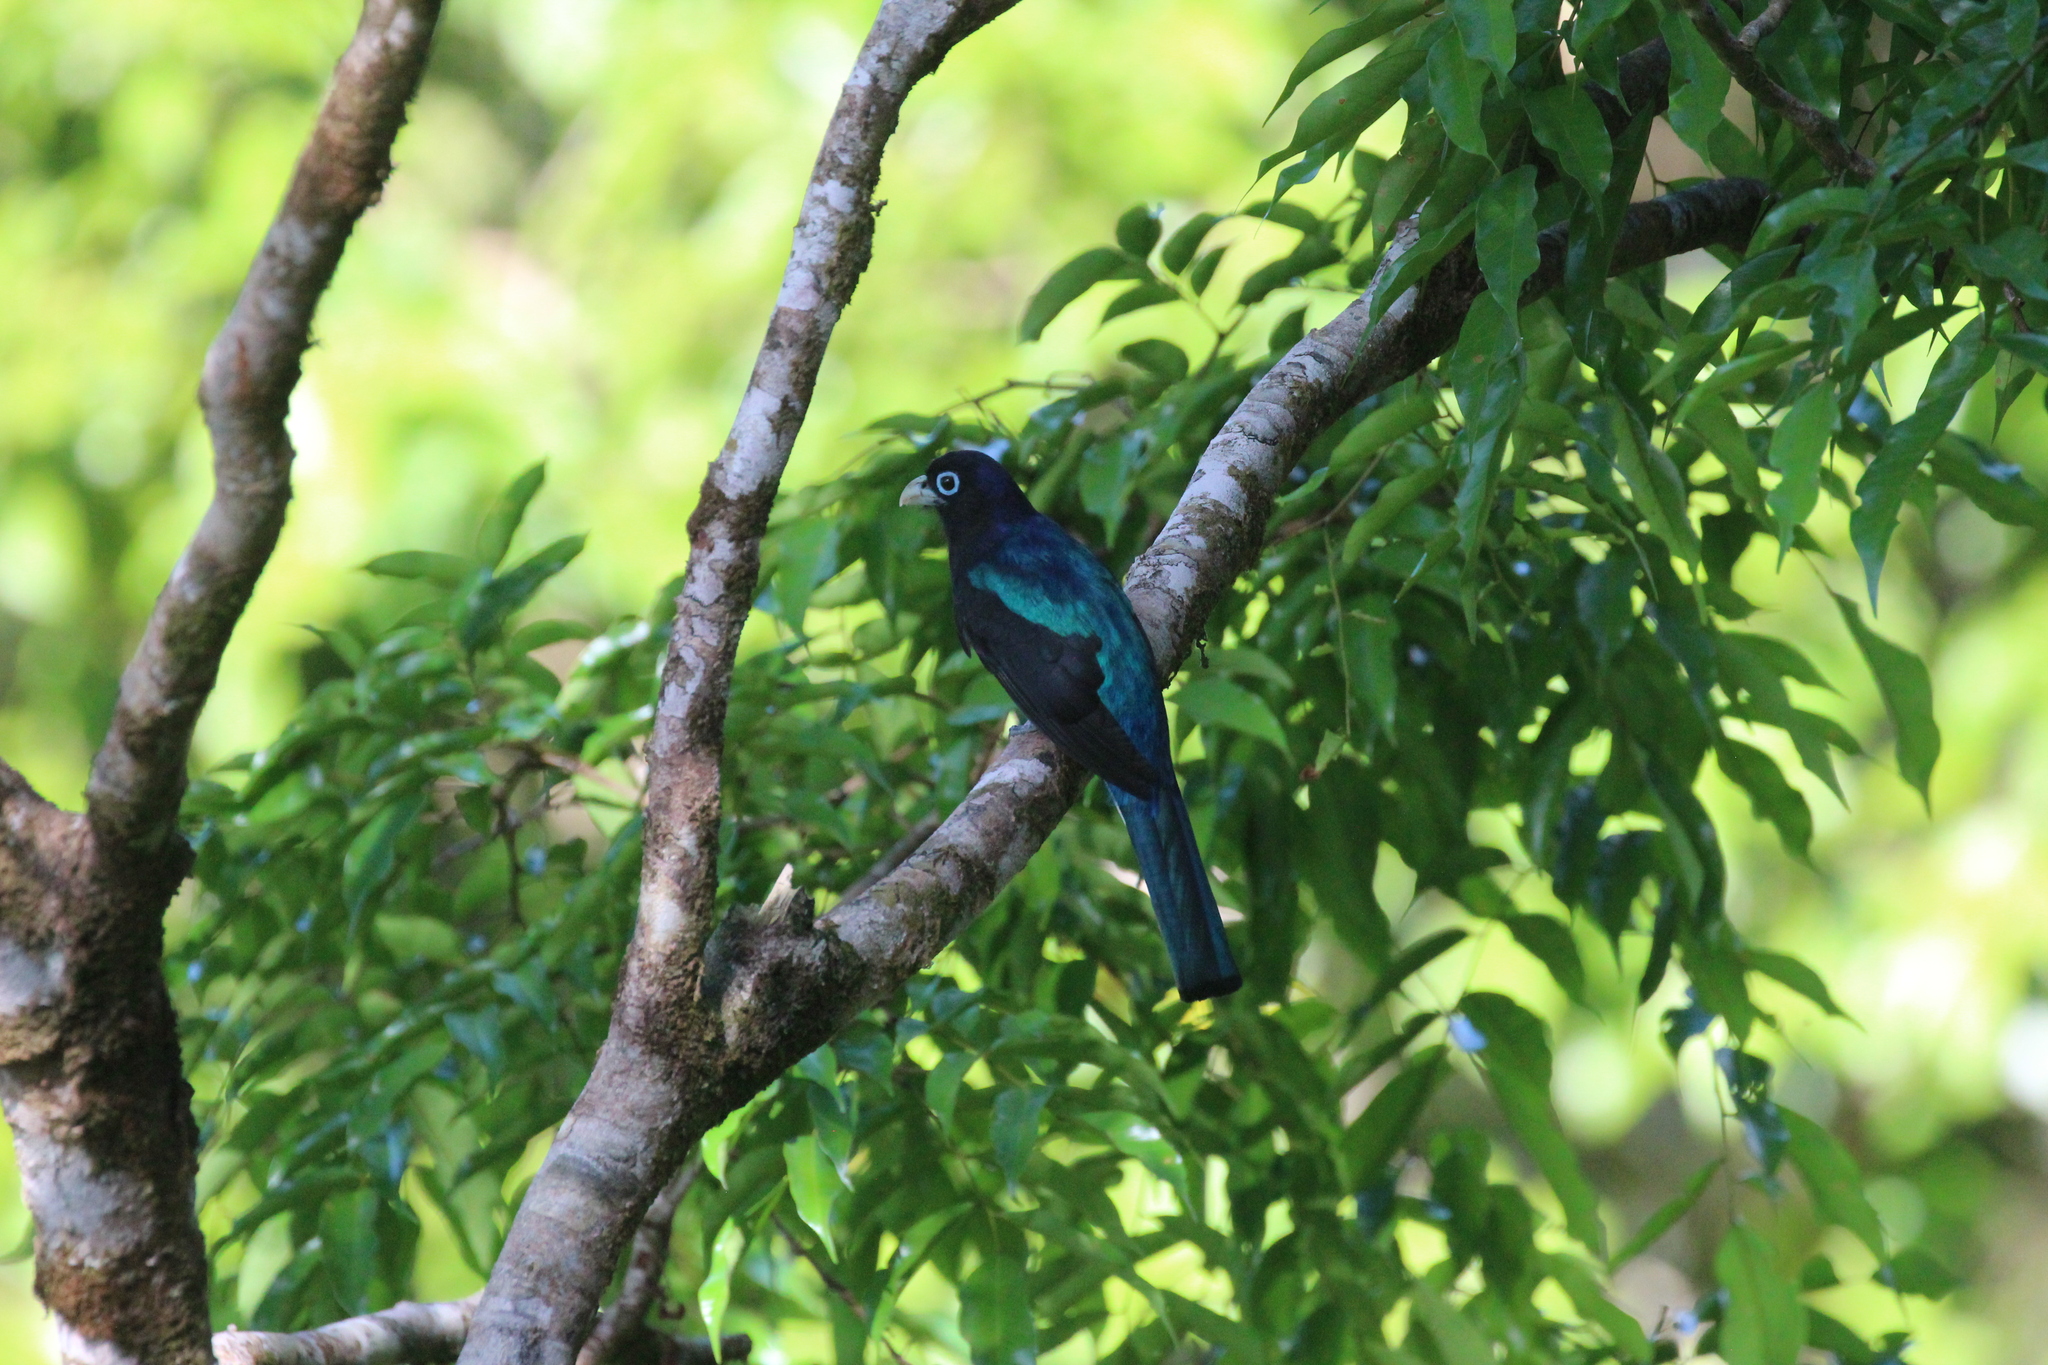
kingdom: Animalia
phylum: Chordata
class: Aves
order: Trogoniformes
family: Trogonidae
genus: Trogon
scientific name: Trogon bairdii
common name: Baird's trogon
